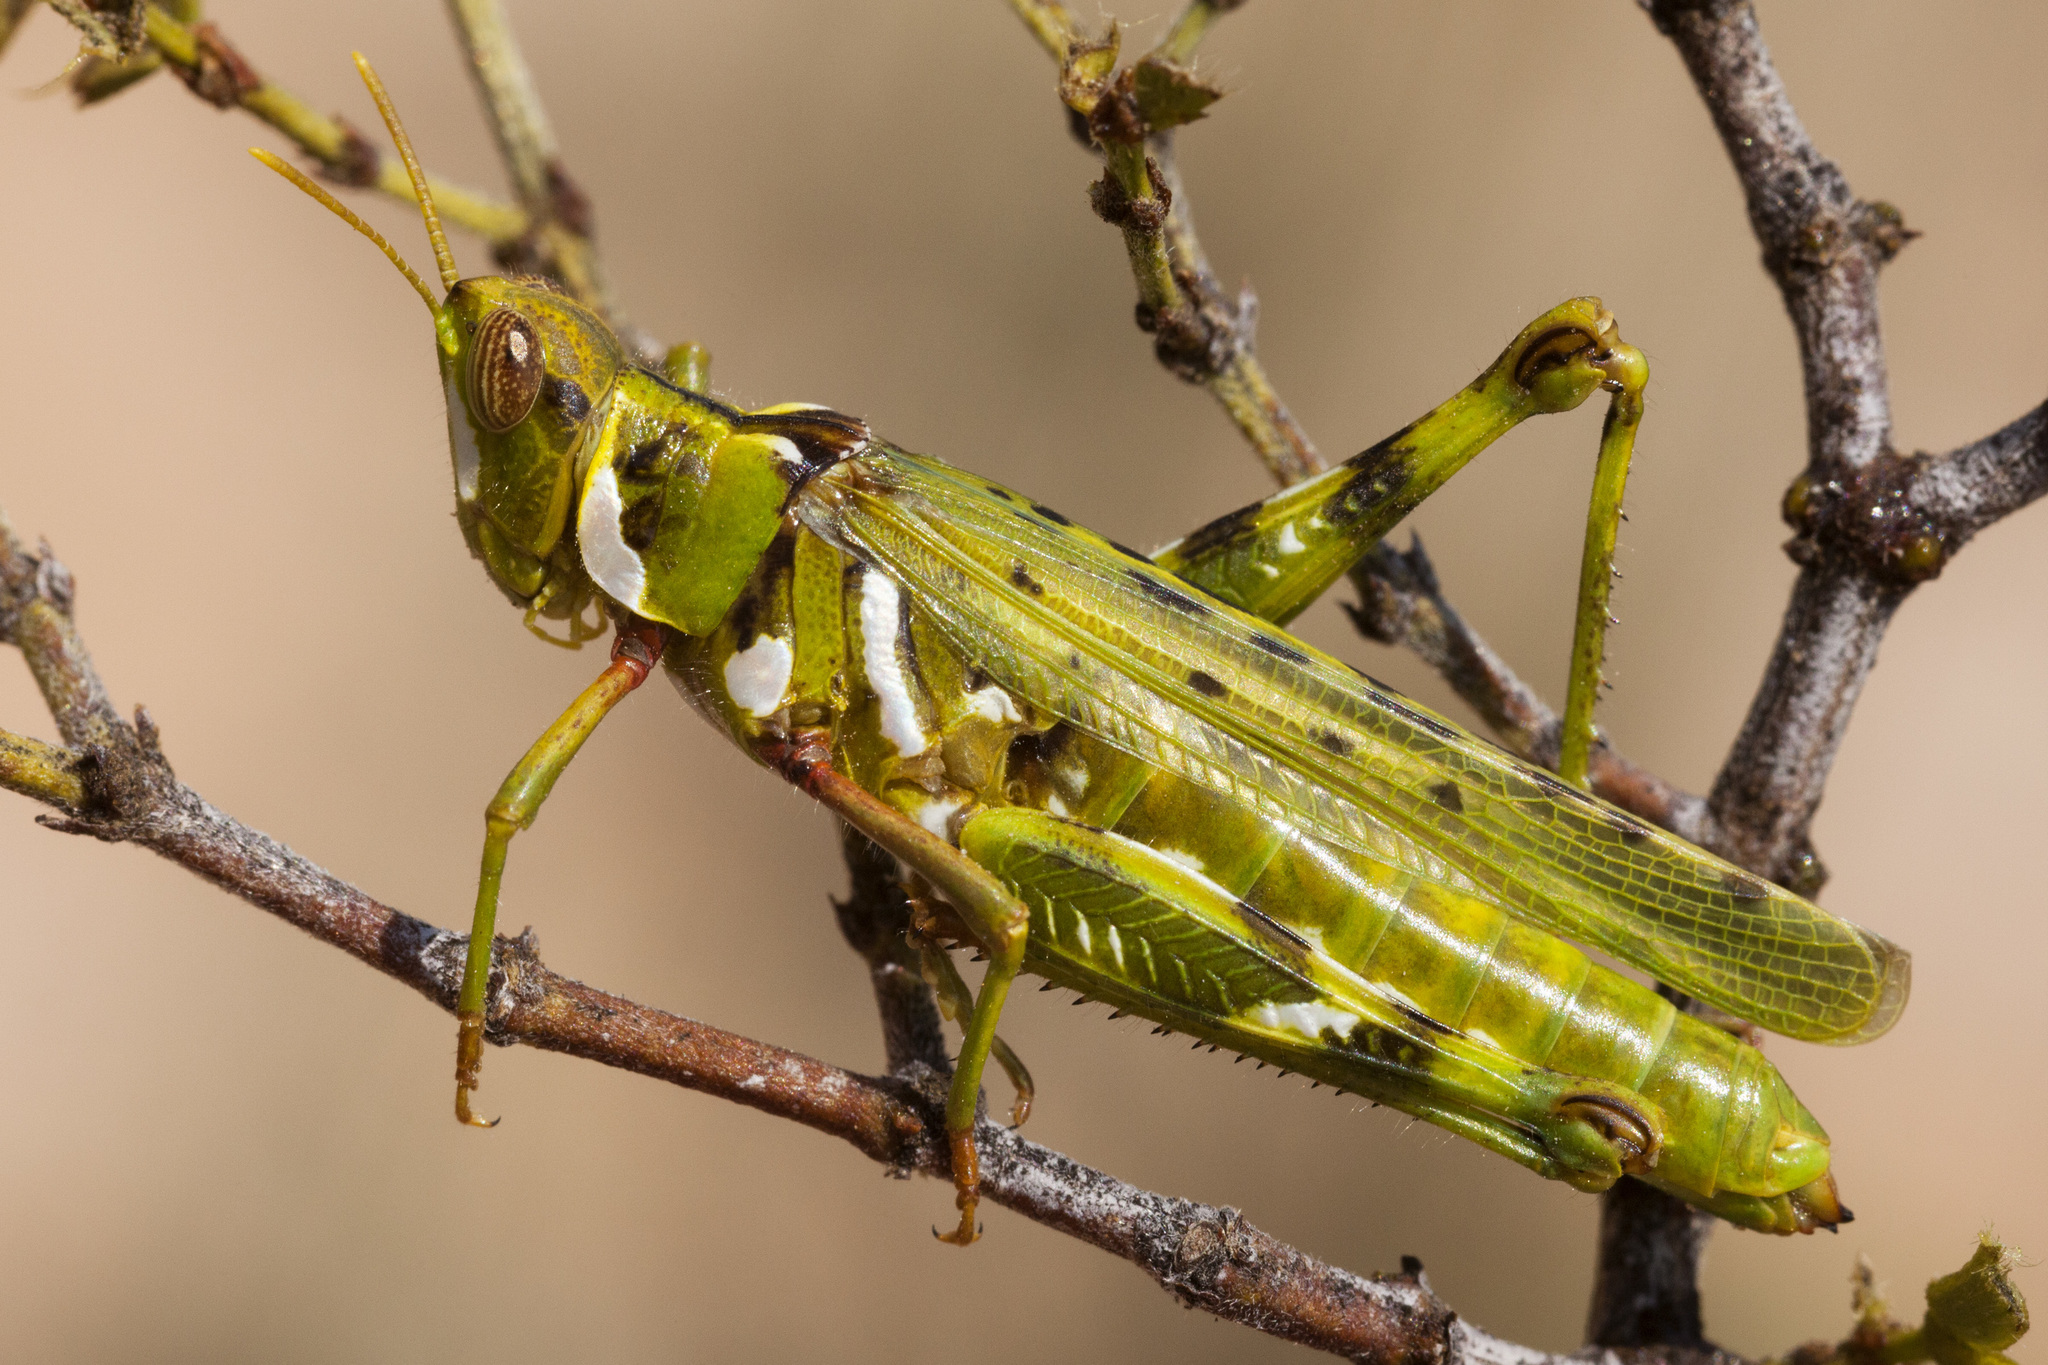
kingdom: Animalia
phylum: Arthropoda
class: Insecta
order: Orthoptera
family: Acrididae
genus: Bootettix
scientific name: Bootettix argentatus
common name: Creosote bush grasshopper
